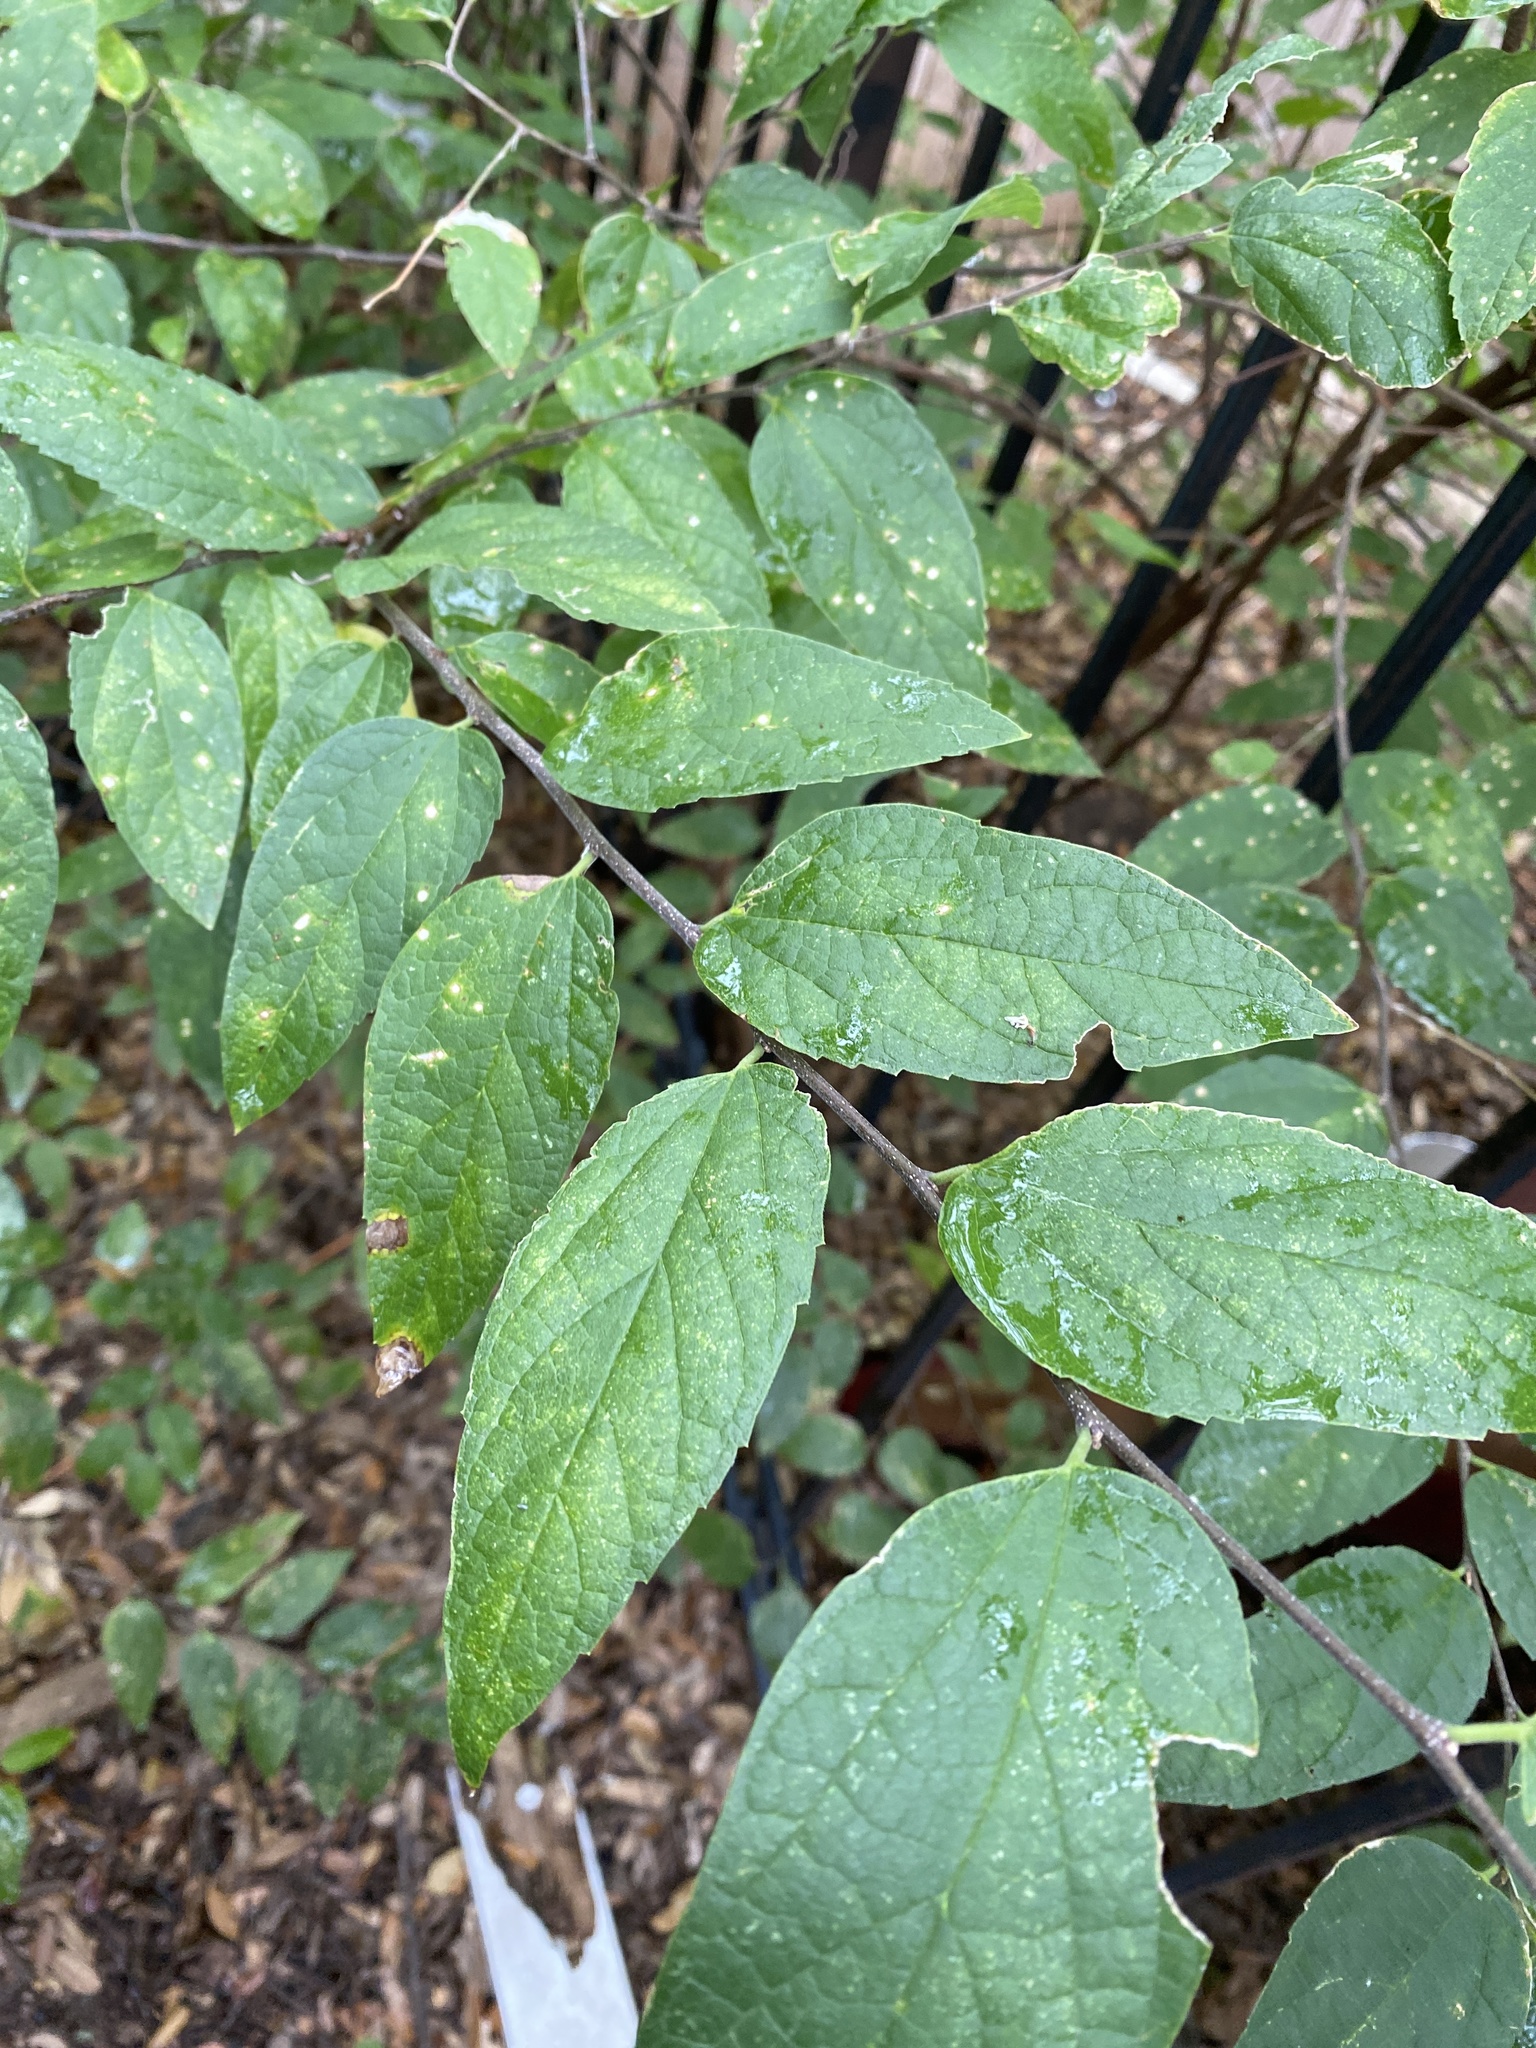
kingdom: Plantae
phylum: Tracheophyta
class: Magnoliopsida
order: Rosales
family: Cannabaceae
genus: Celtis
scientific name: Celtis laevigata
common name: Sugarberry
